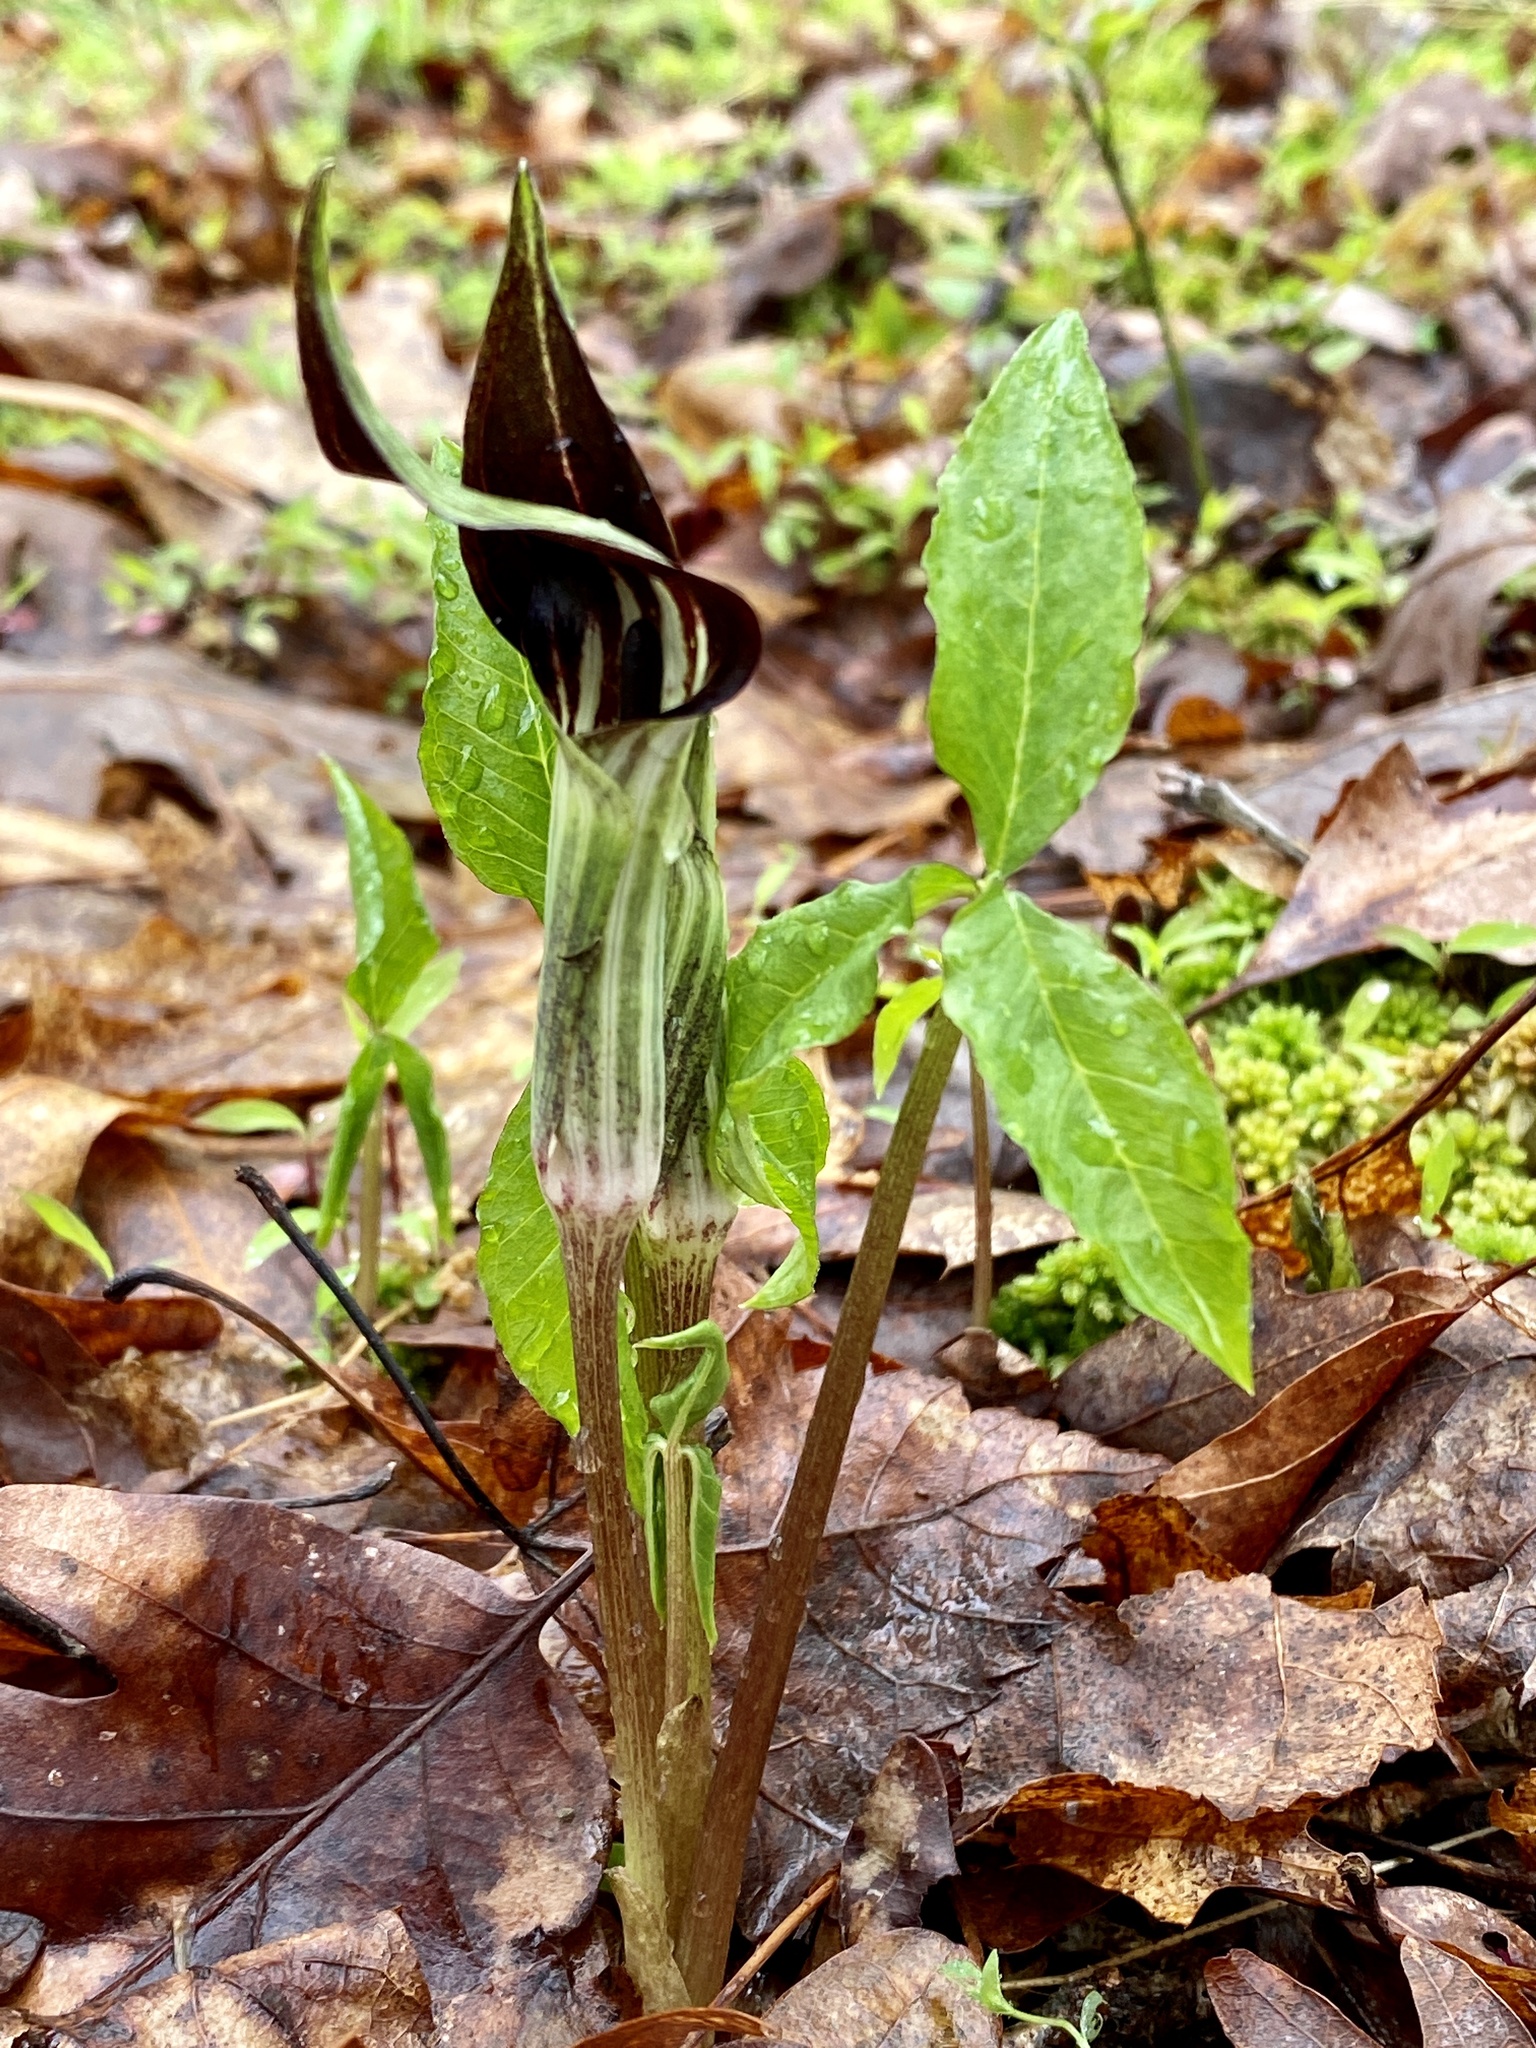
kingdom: Plantae
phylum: Tracheophyta
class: Liliopsida
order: Alismatales
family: Araceae
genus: Arisaema
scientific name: Arisaema pusillum
